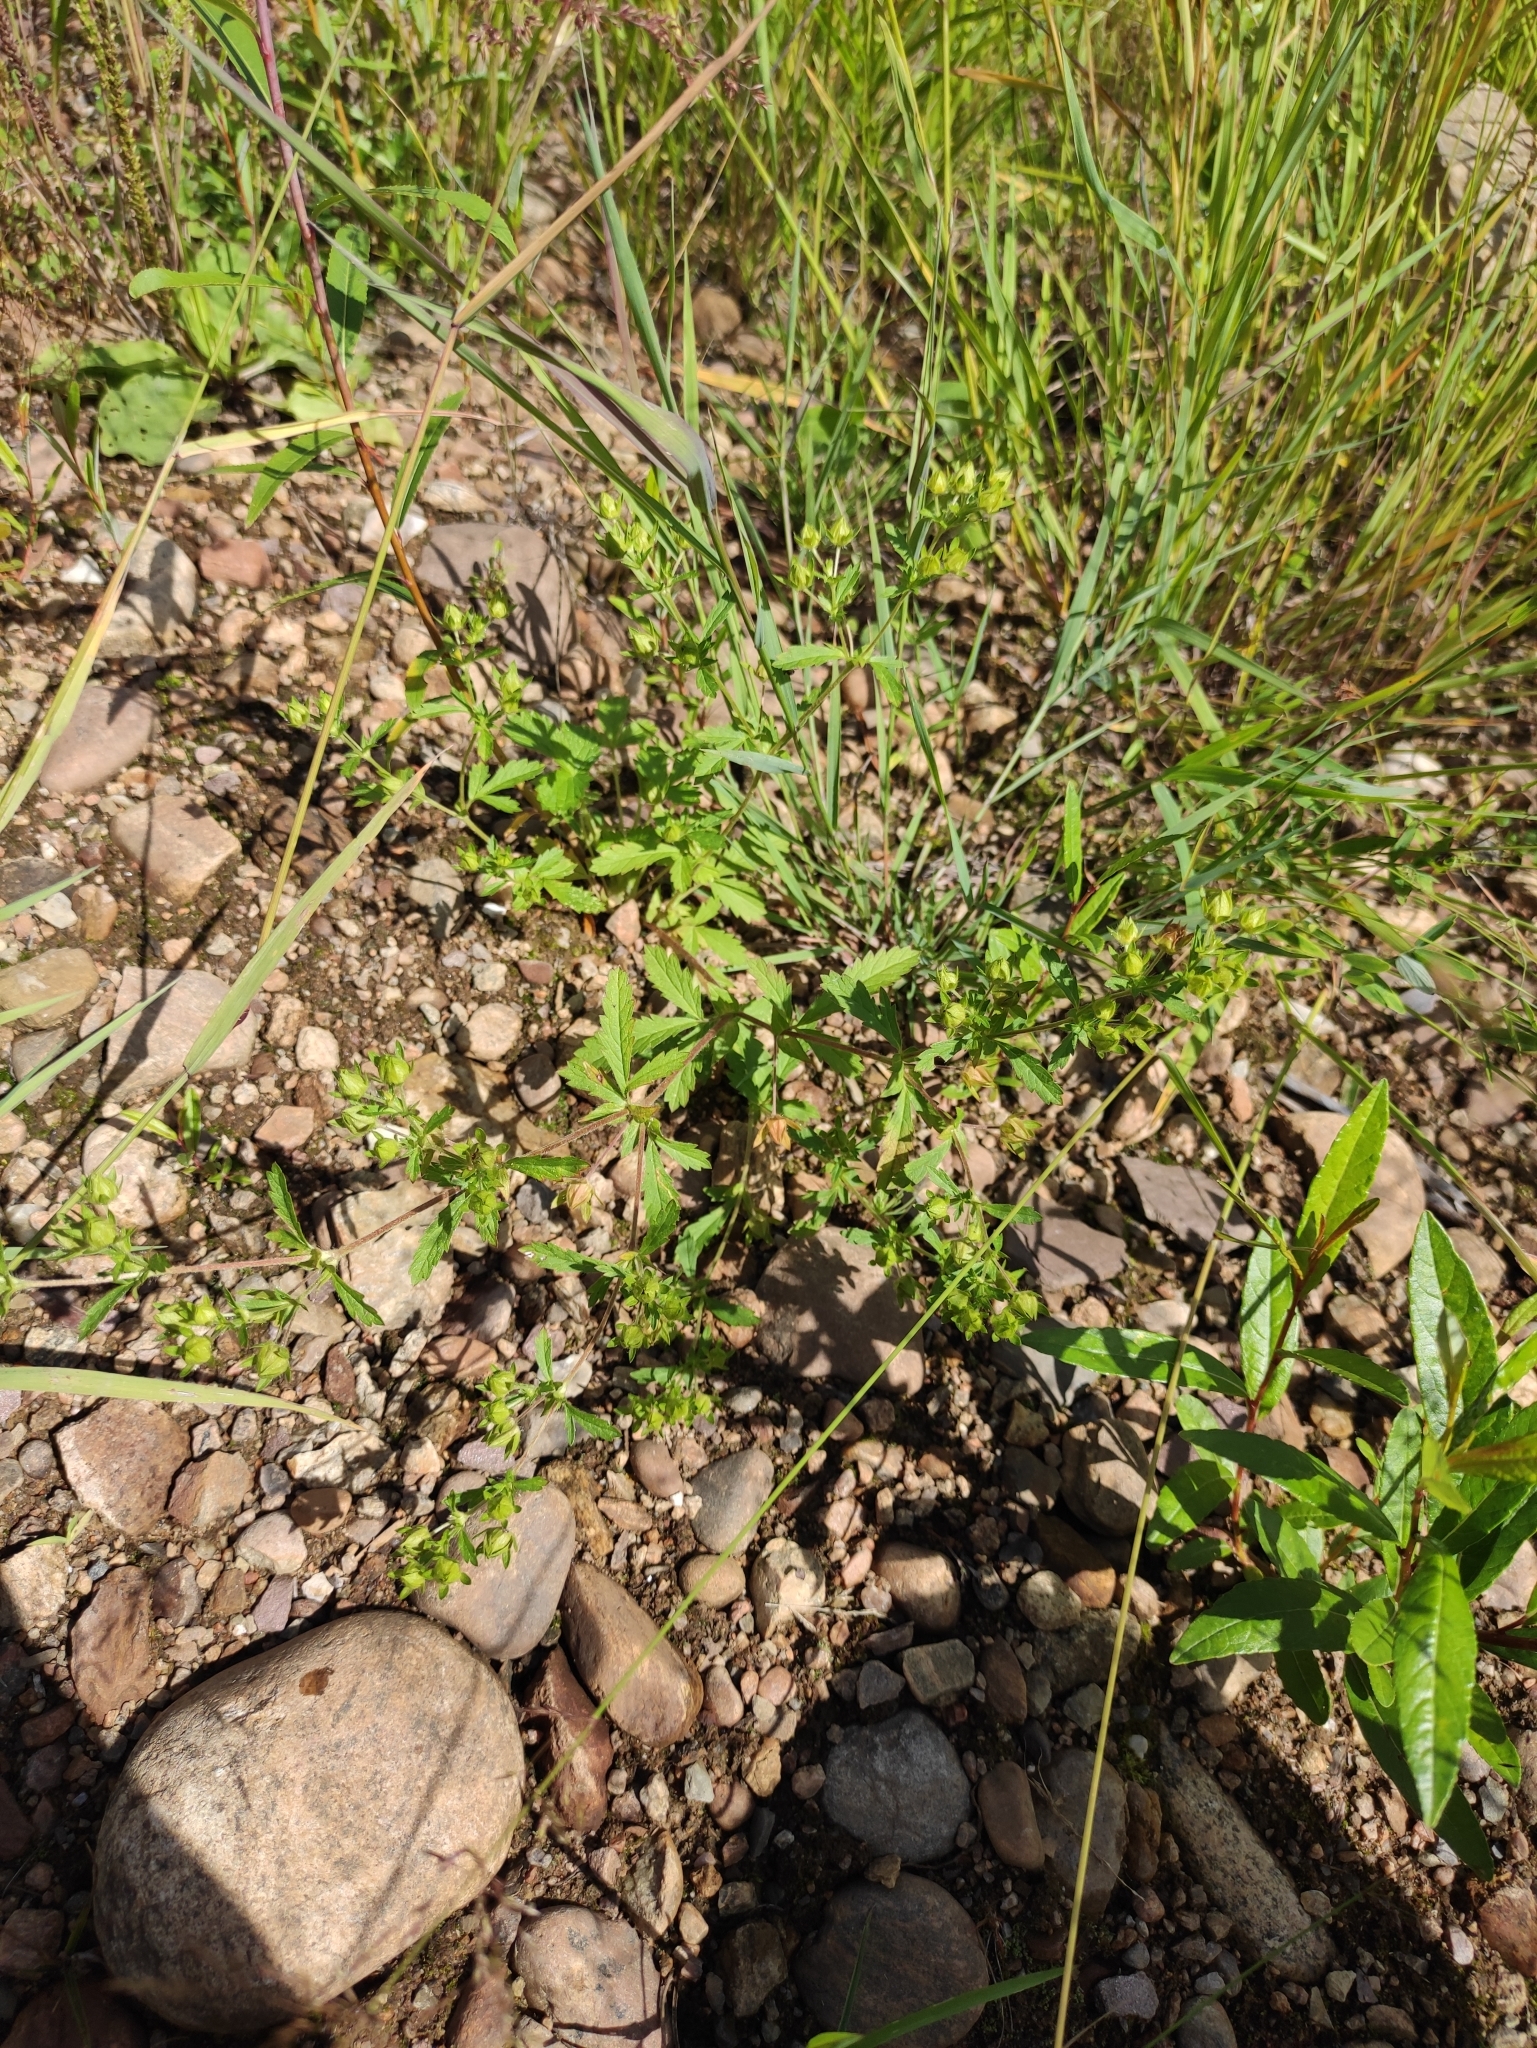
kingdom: Plantae
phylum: Tracheophyta
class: Magnoliopsida
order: Rosales
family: Rosaceae
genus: Potentilla
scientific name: Potentilla norvegica
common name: Ternate-leaved cinquefoil
